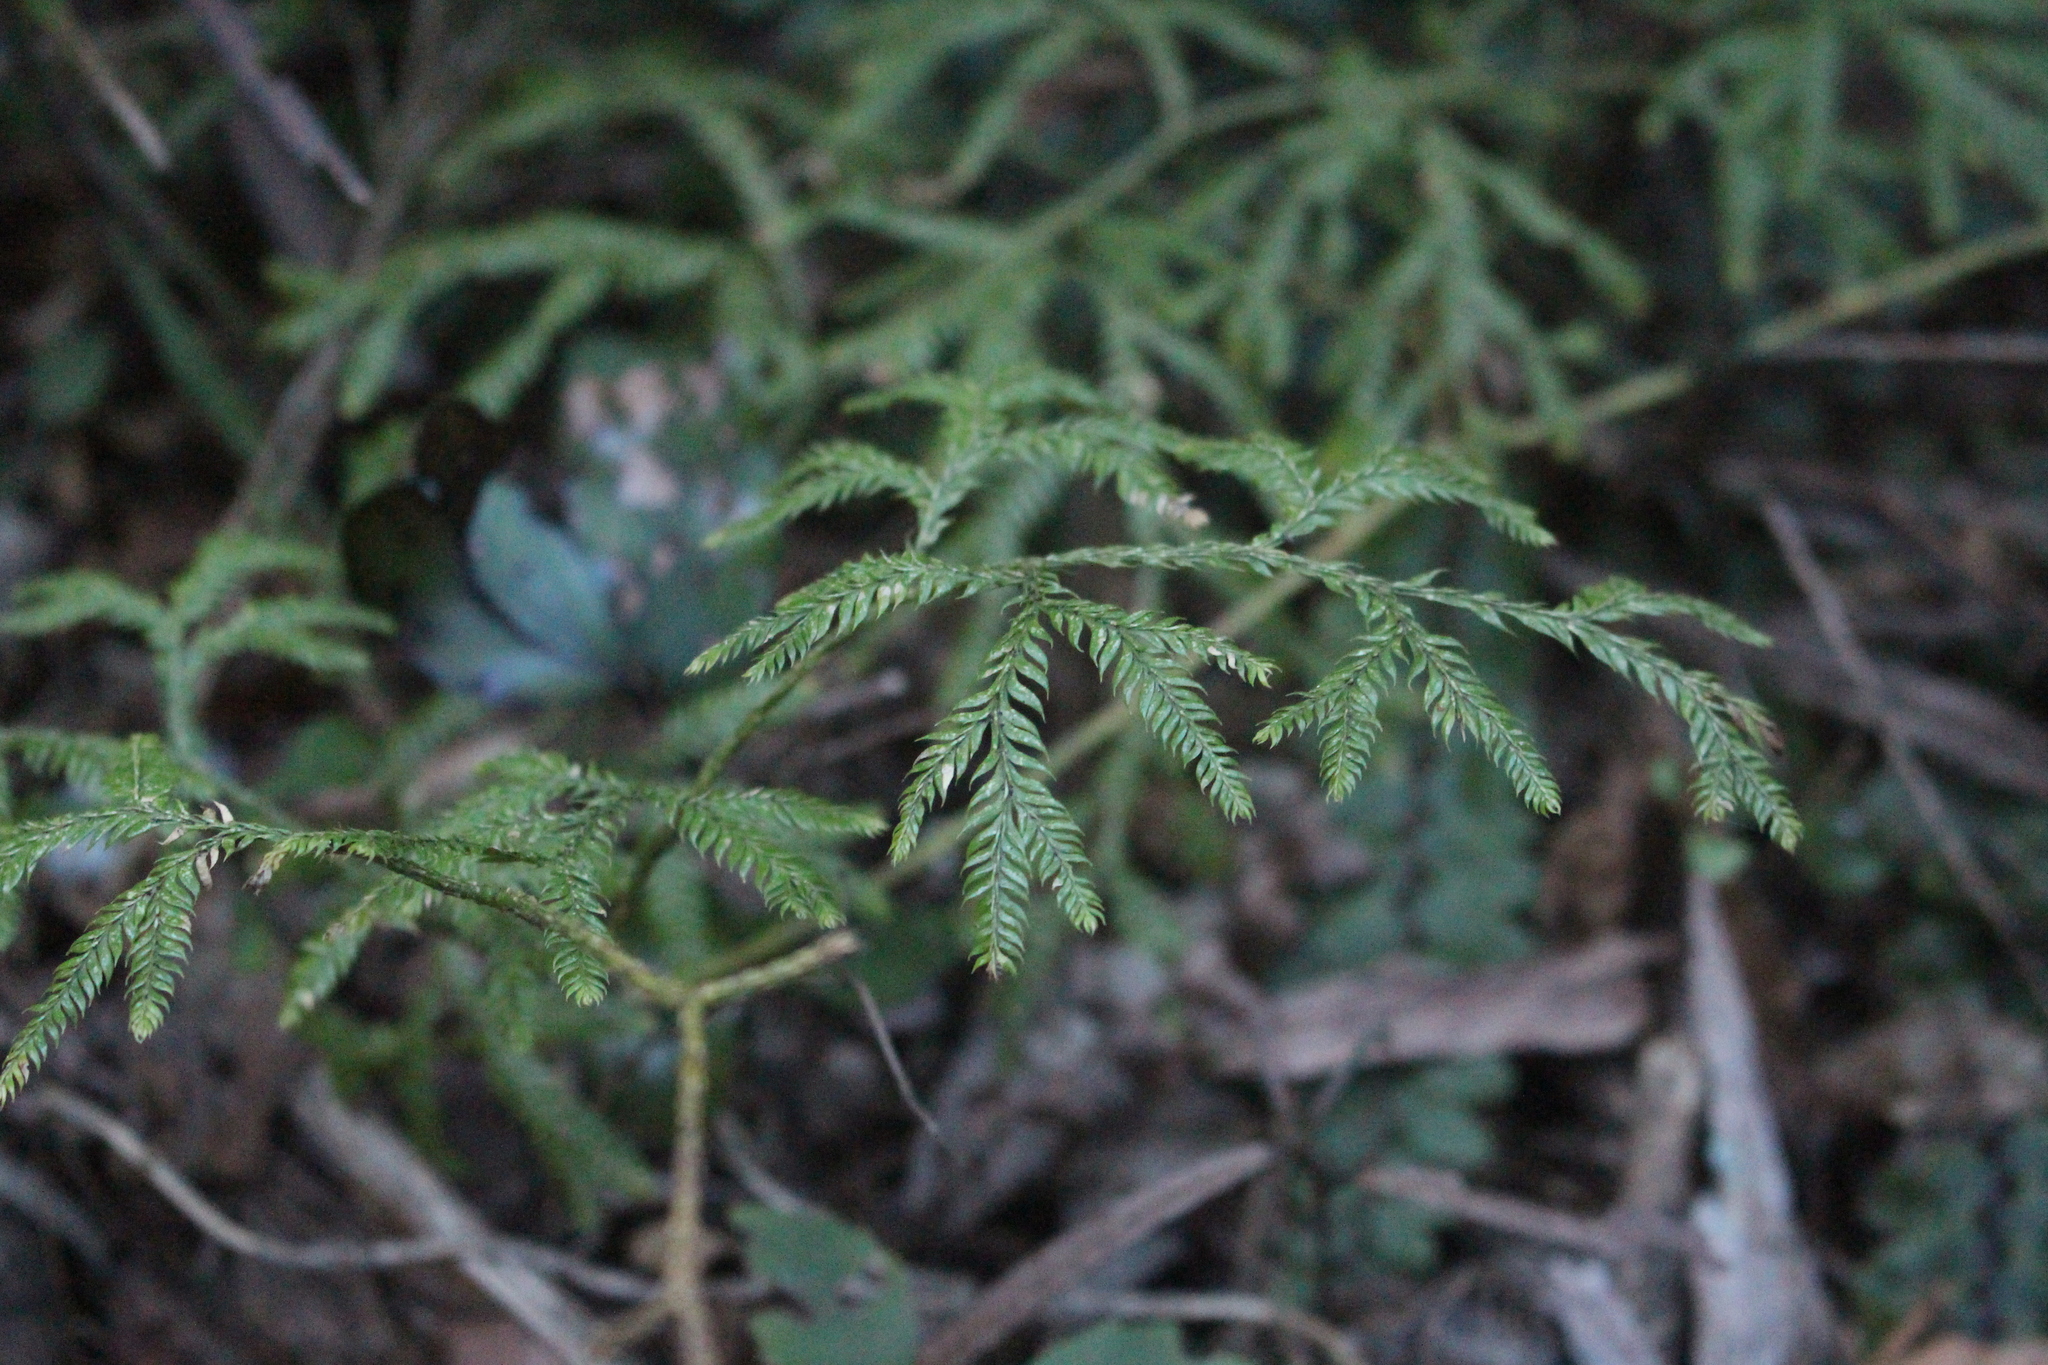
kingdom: Plantae
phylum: Tracheophyta
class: Lycopodiopsida
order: Lycopodiales
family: Lycopodiaceae
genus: Lycopodium
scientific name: Lycopodium volubile
